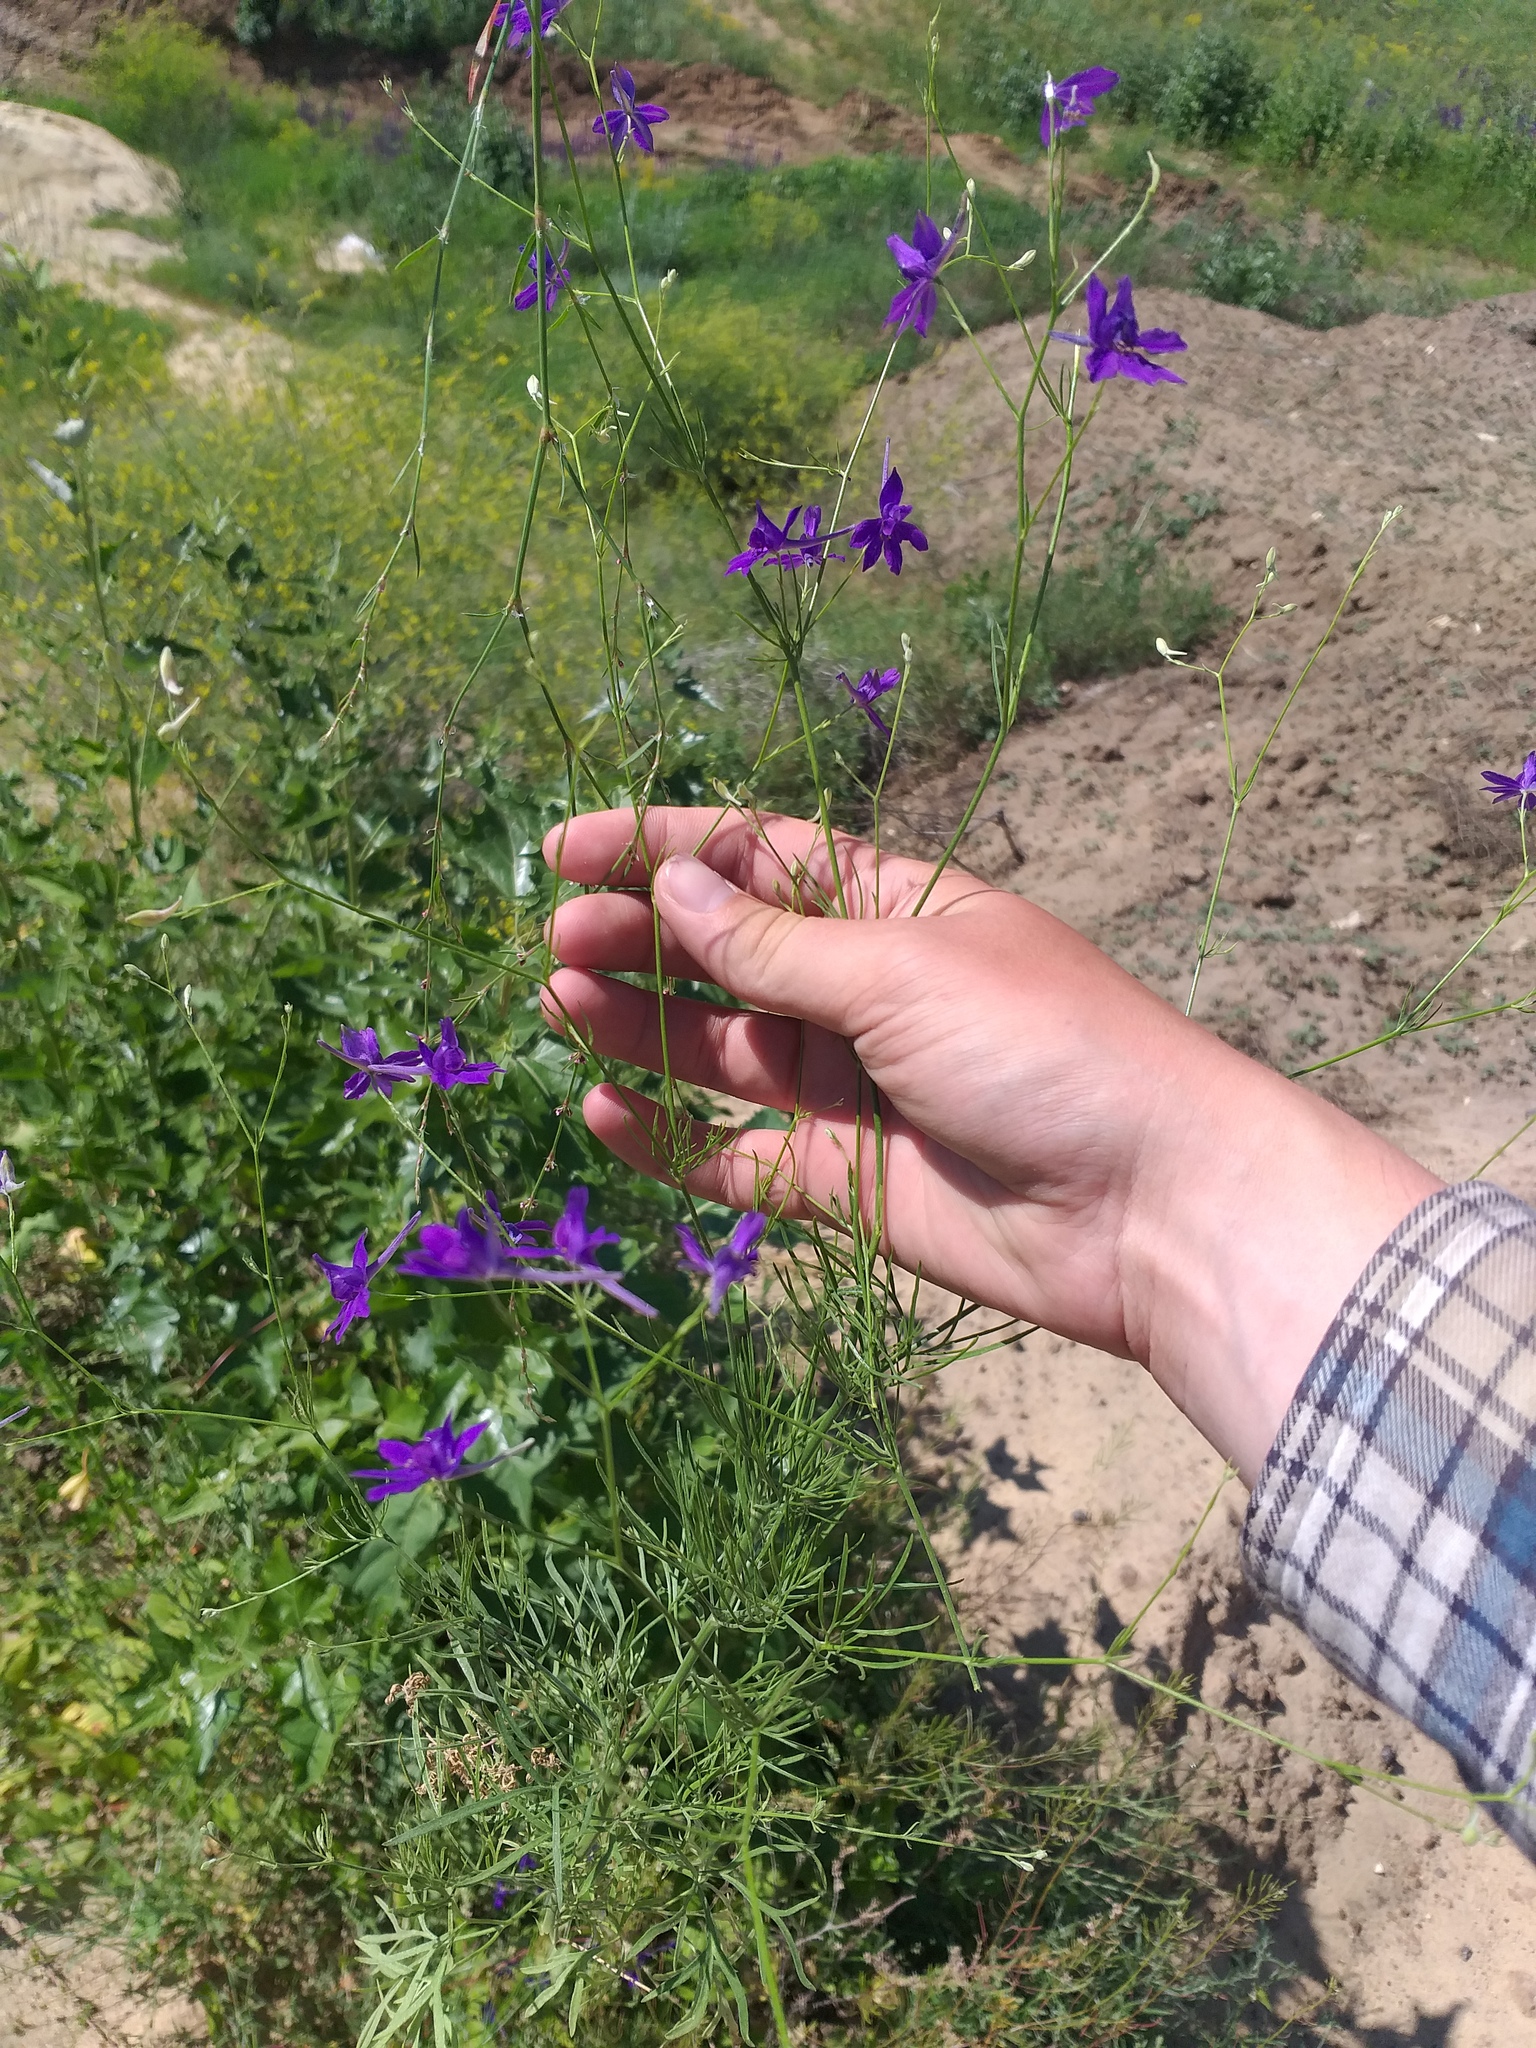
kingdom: Plantae
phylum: Tracheophyta
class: Magnoliopsida
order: Ranunculales
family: Ranunculaceae
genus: Delphinium
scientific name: Delphinium consolida
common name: Branching larkspur
